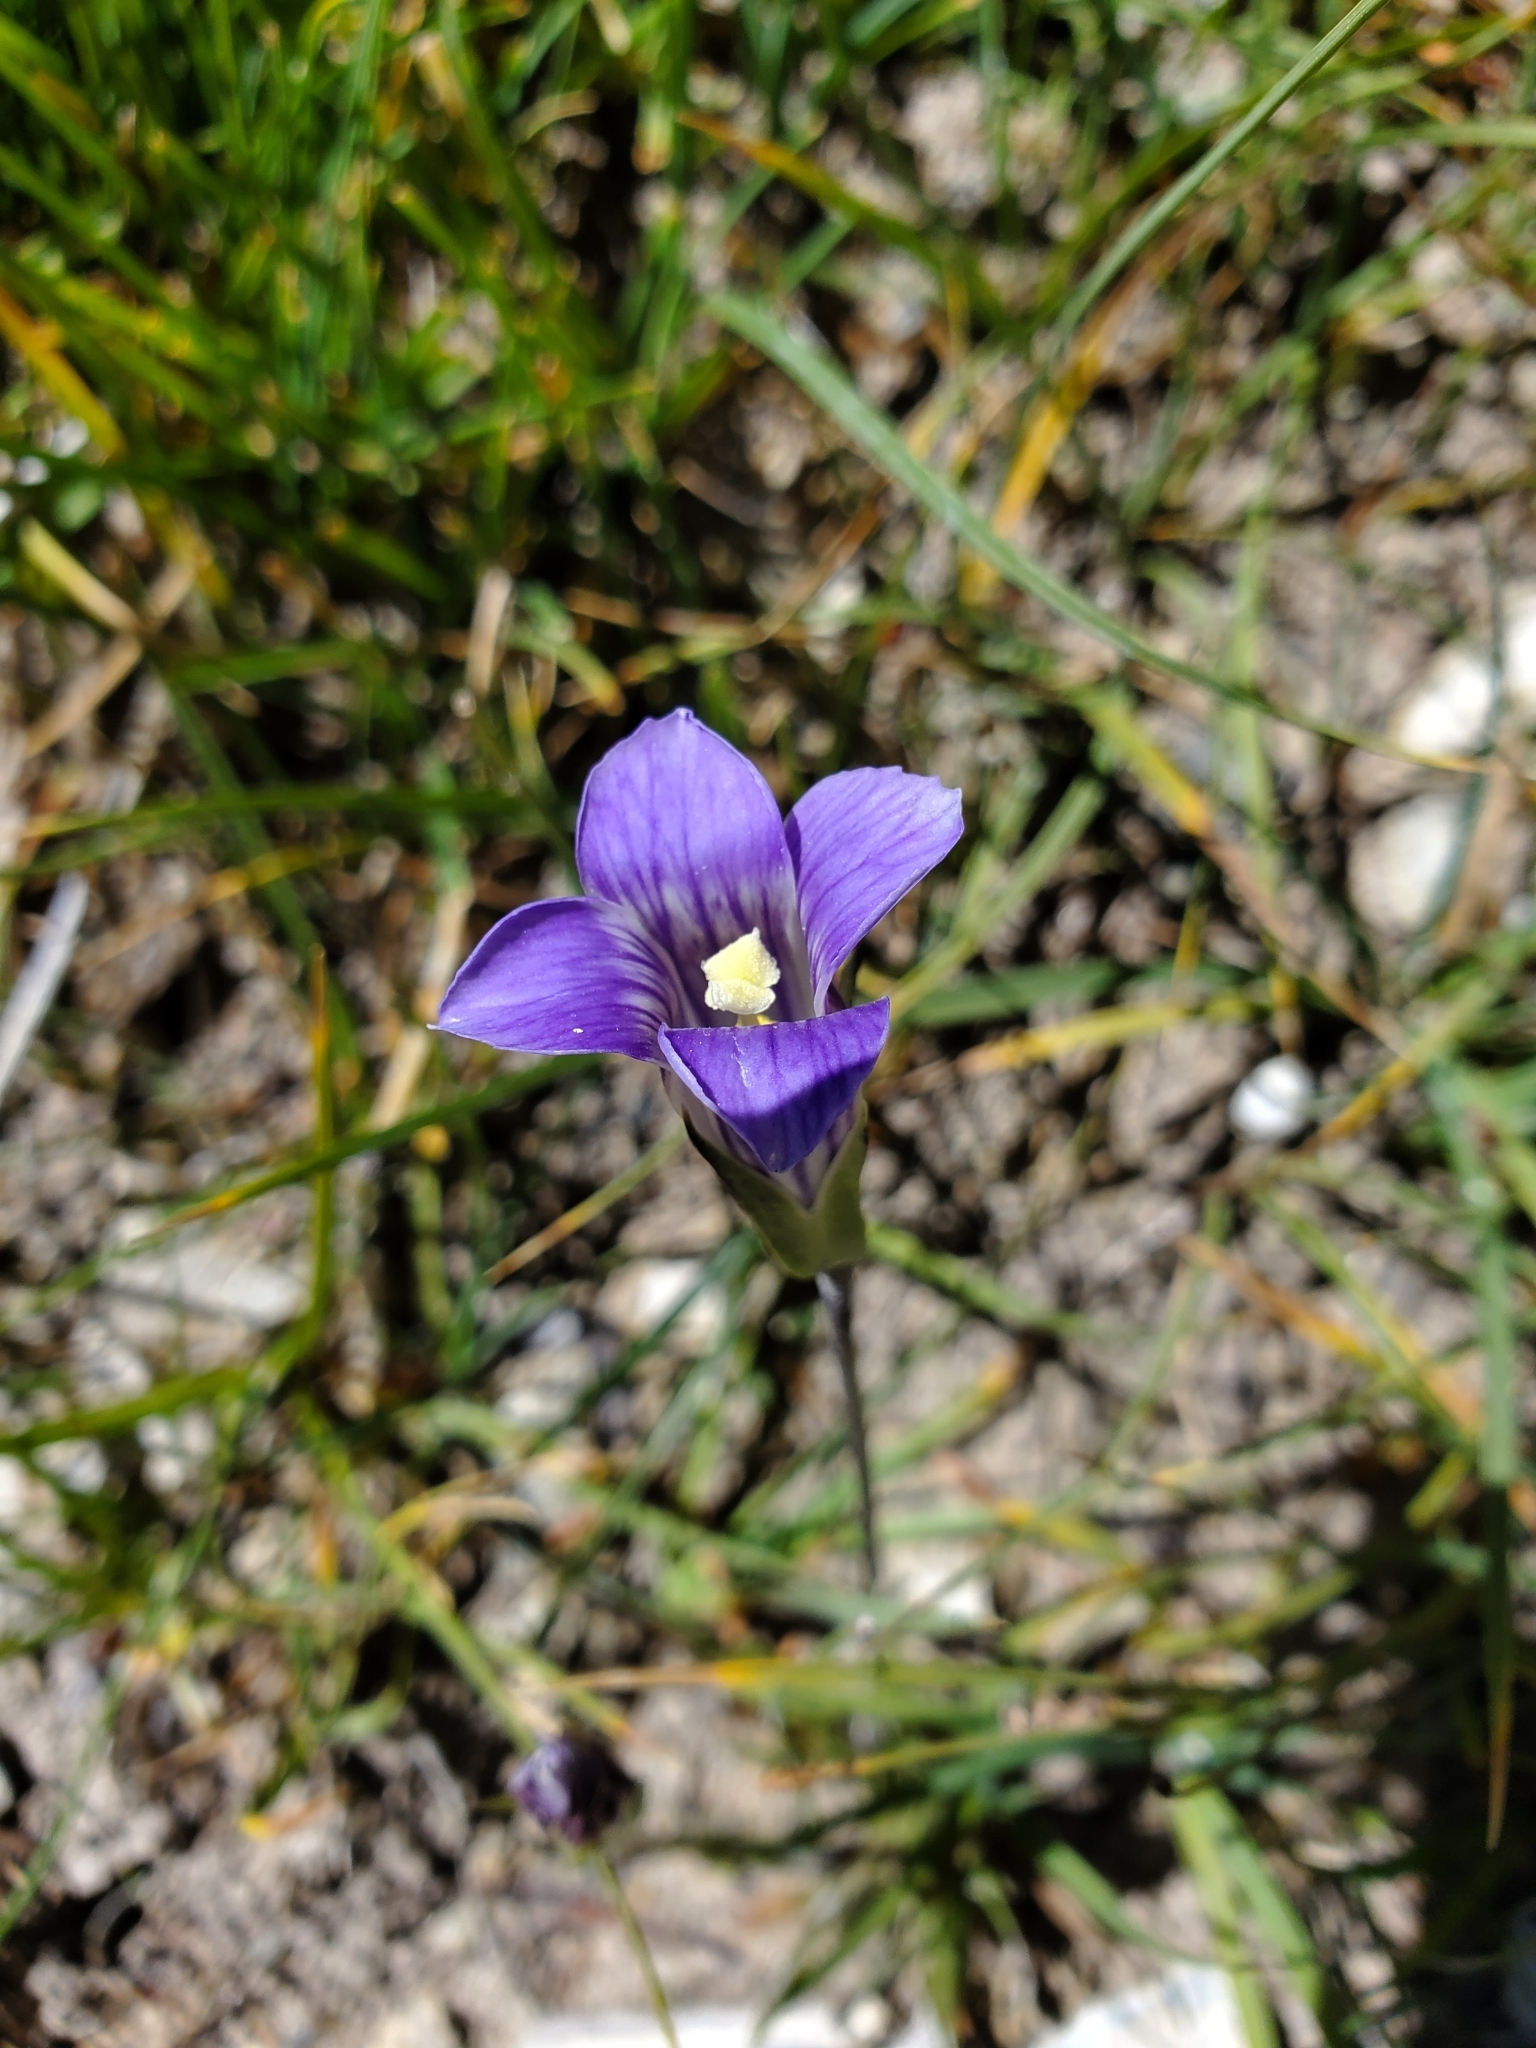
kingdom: Plantae
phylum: Tracheophyta
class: Magnoliopsida
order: Gentianales
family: Gentianaceae
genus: Gentianopsis
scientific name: Gentianopsis holopetala
